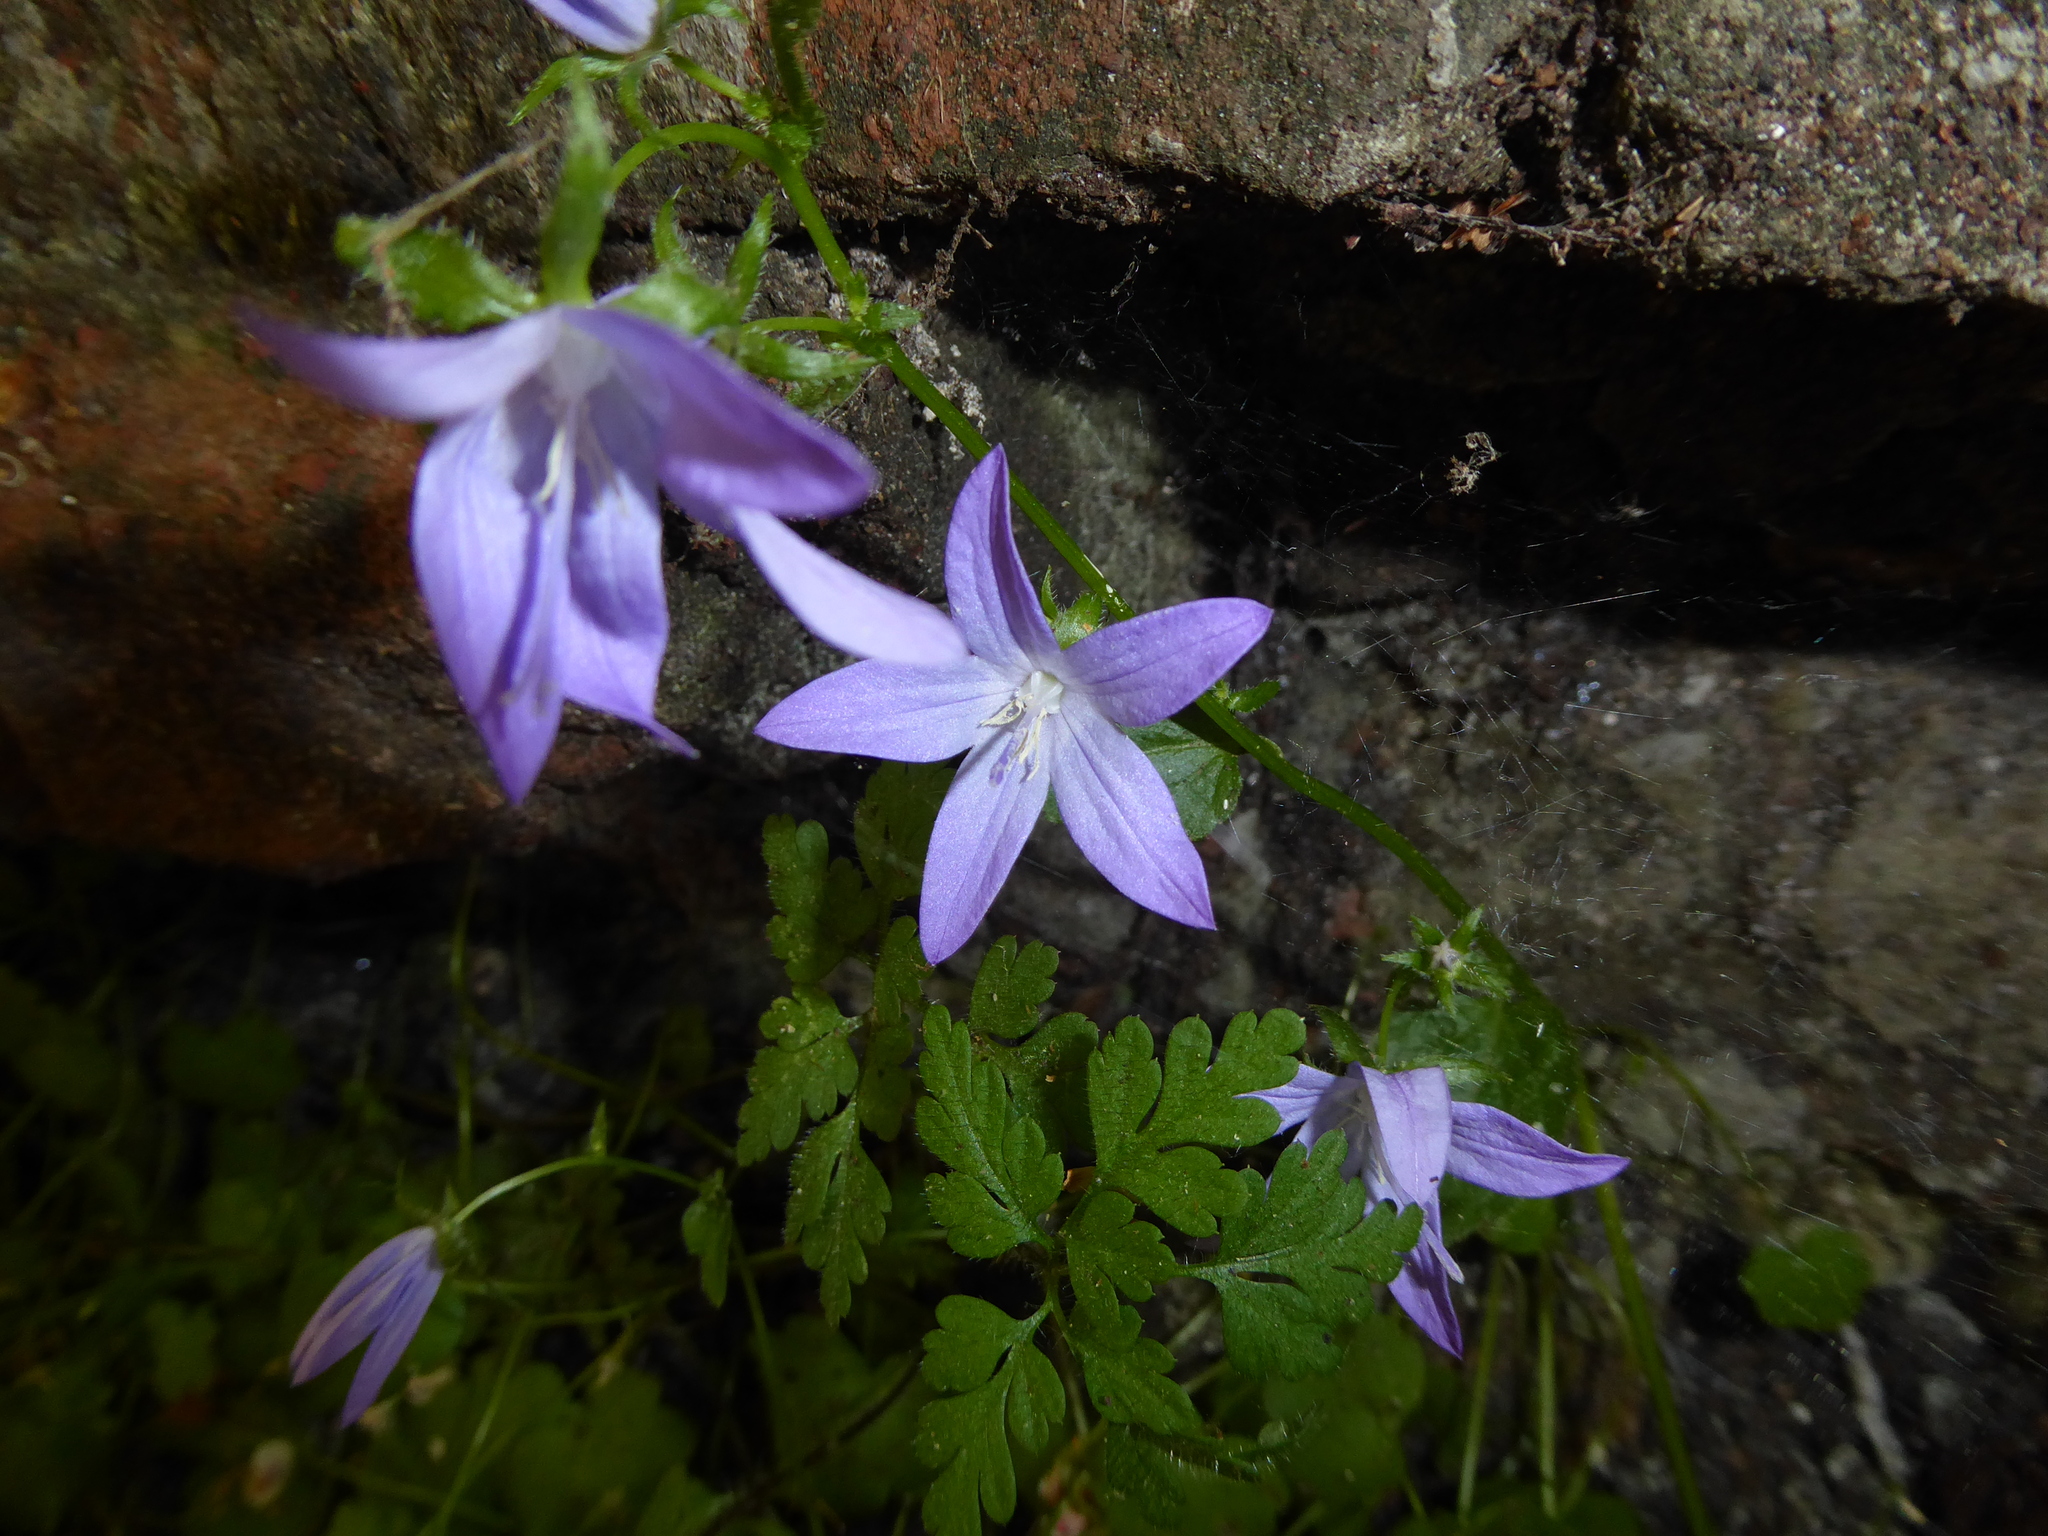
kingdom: Plantae
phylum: Tracheophyta
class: Magnoliopsida
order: Asterales
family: Campanulaceae
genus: Campanula
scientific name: Campanula poscharskyana
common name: Trailing bellflower
